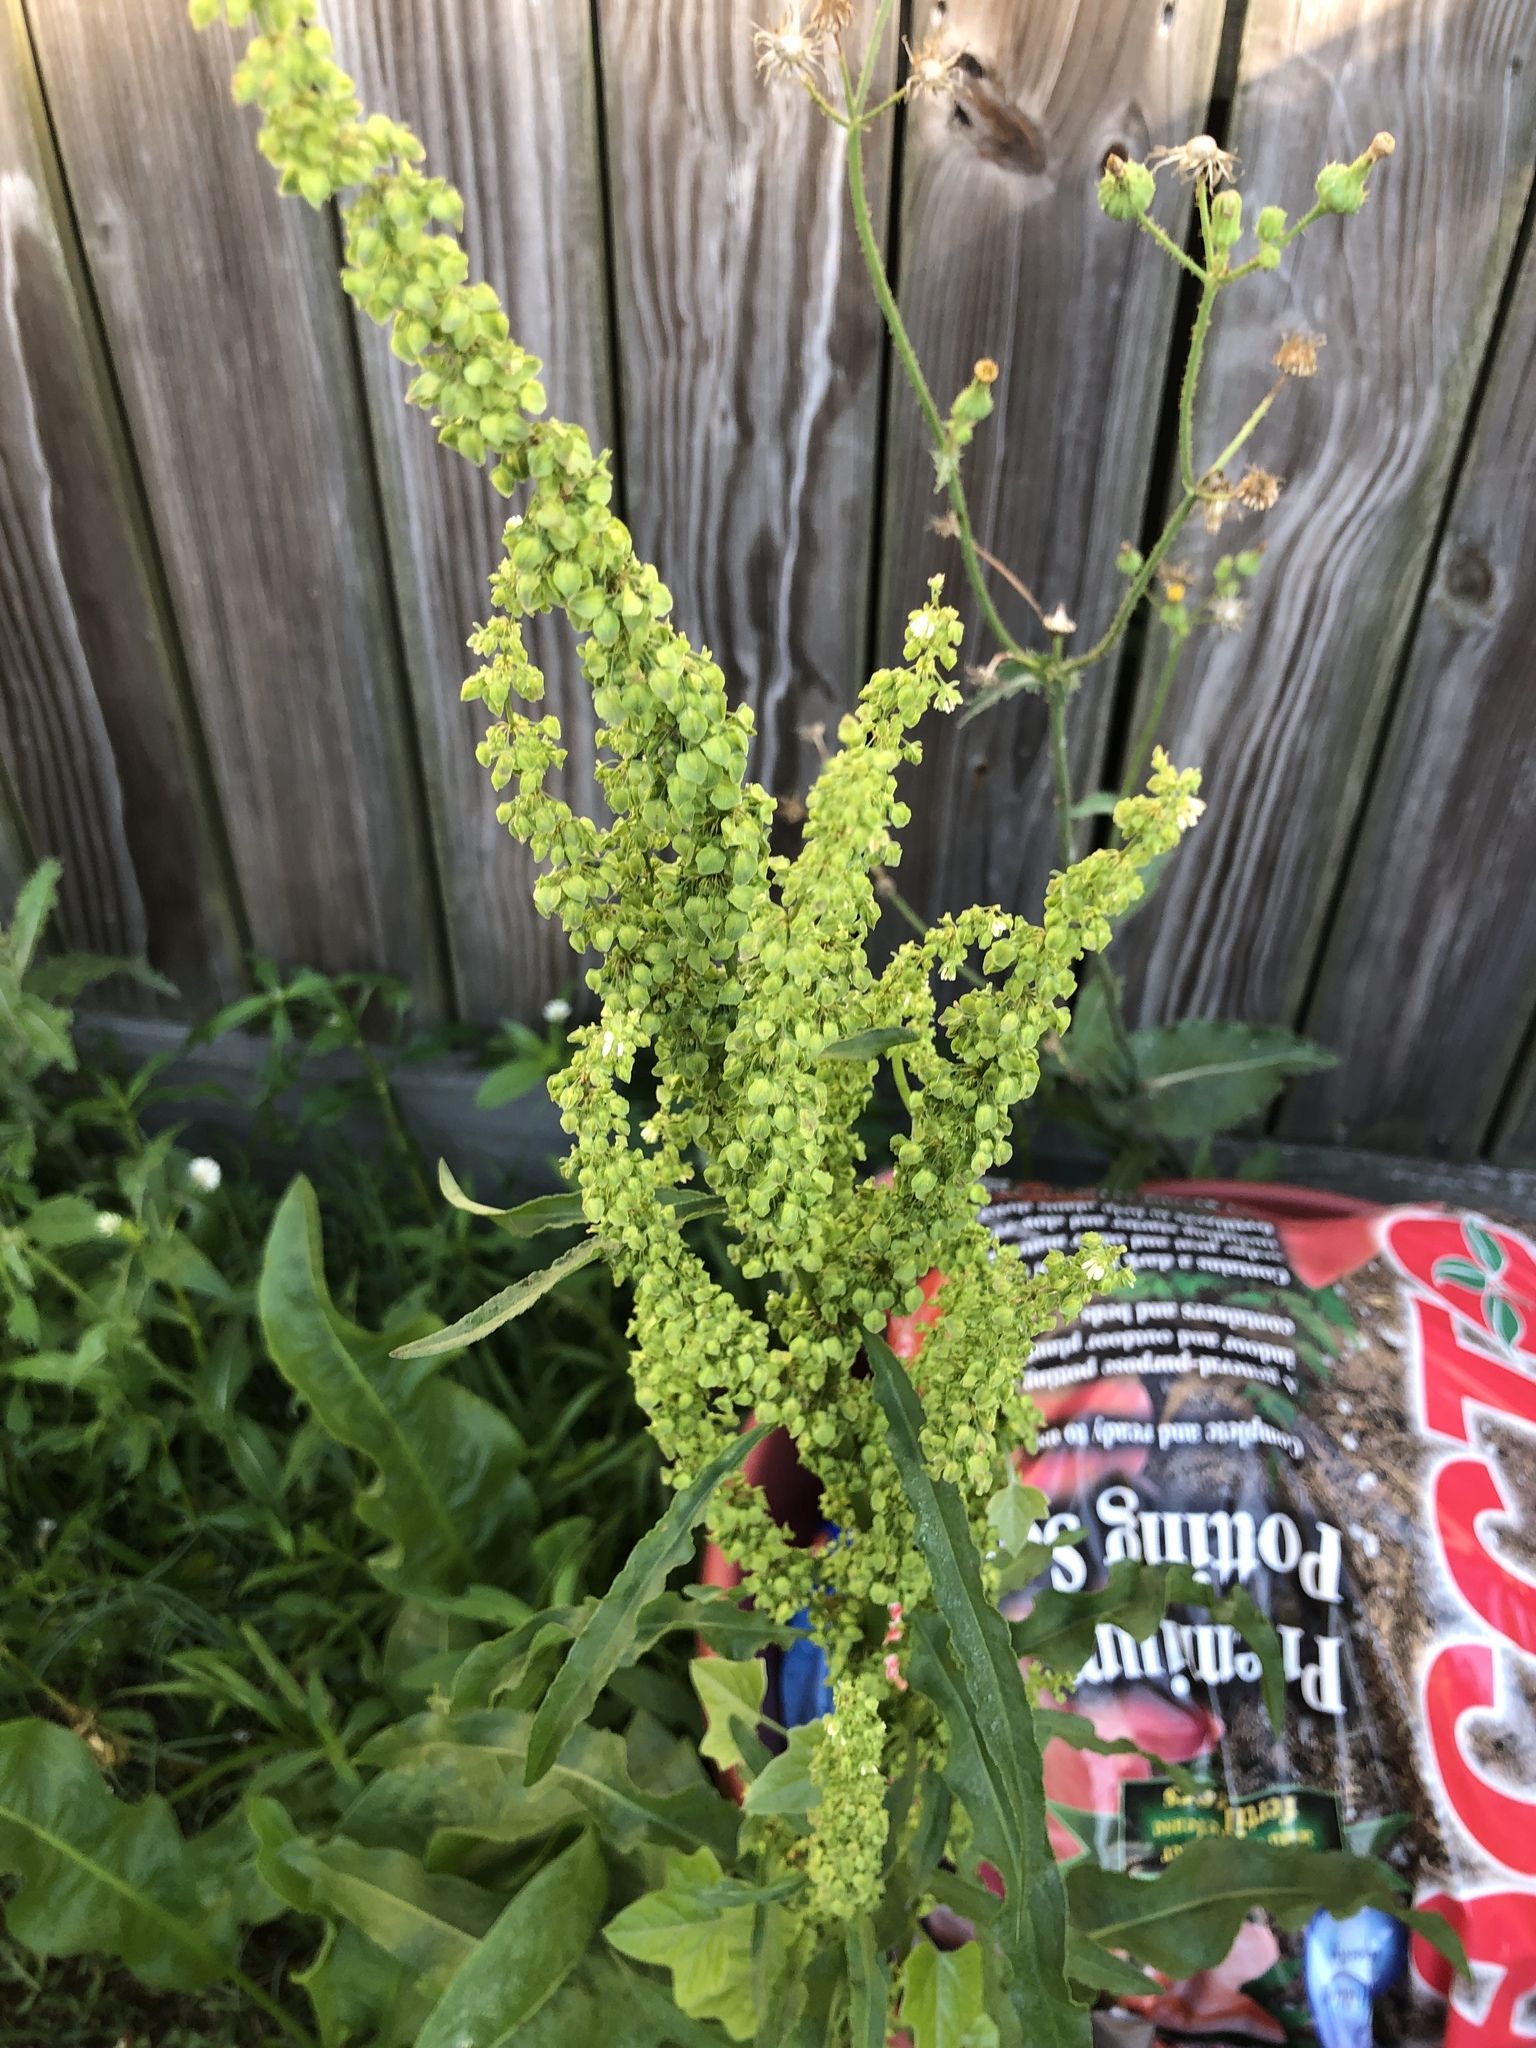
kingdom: Plantae
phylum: Tracheophyta
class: Magnoliopsida
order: Caryophyllales
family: Polygonaceae
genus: Rumex
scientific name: Rumex crispus
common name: Curled dock
